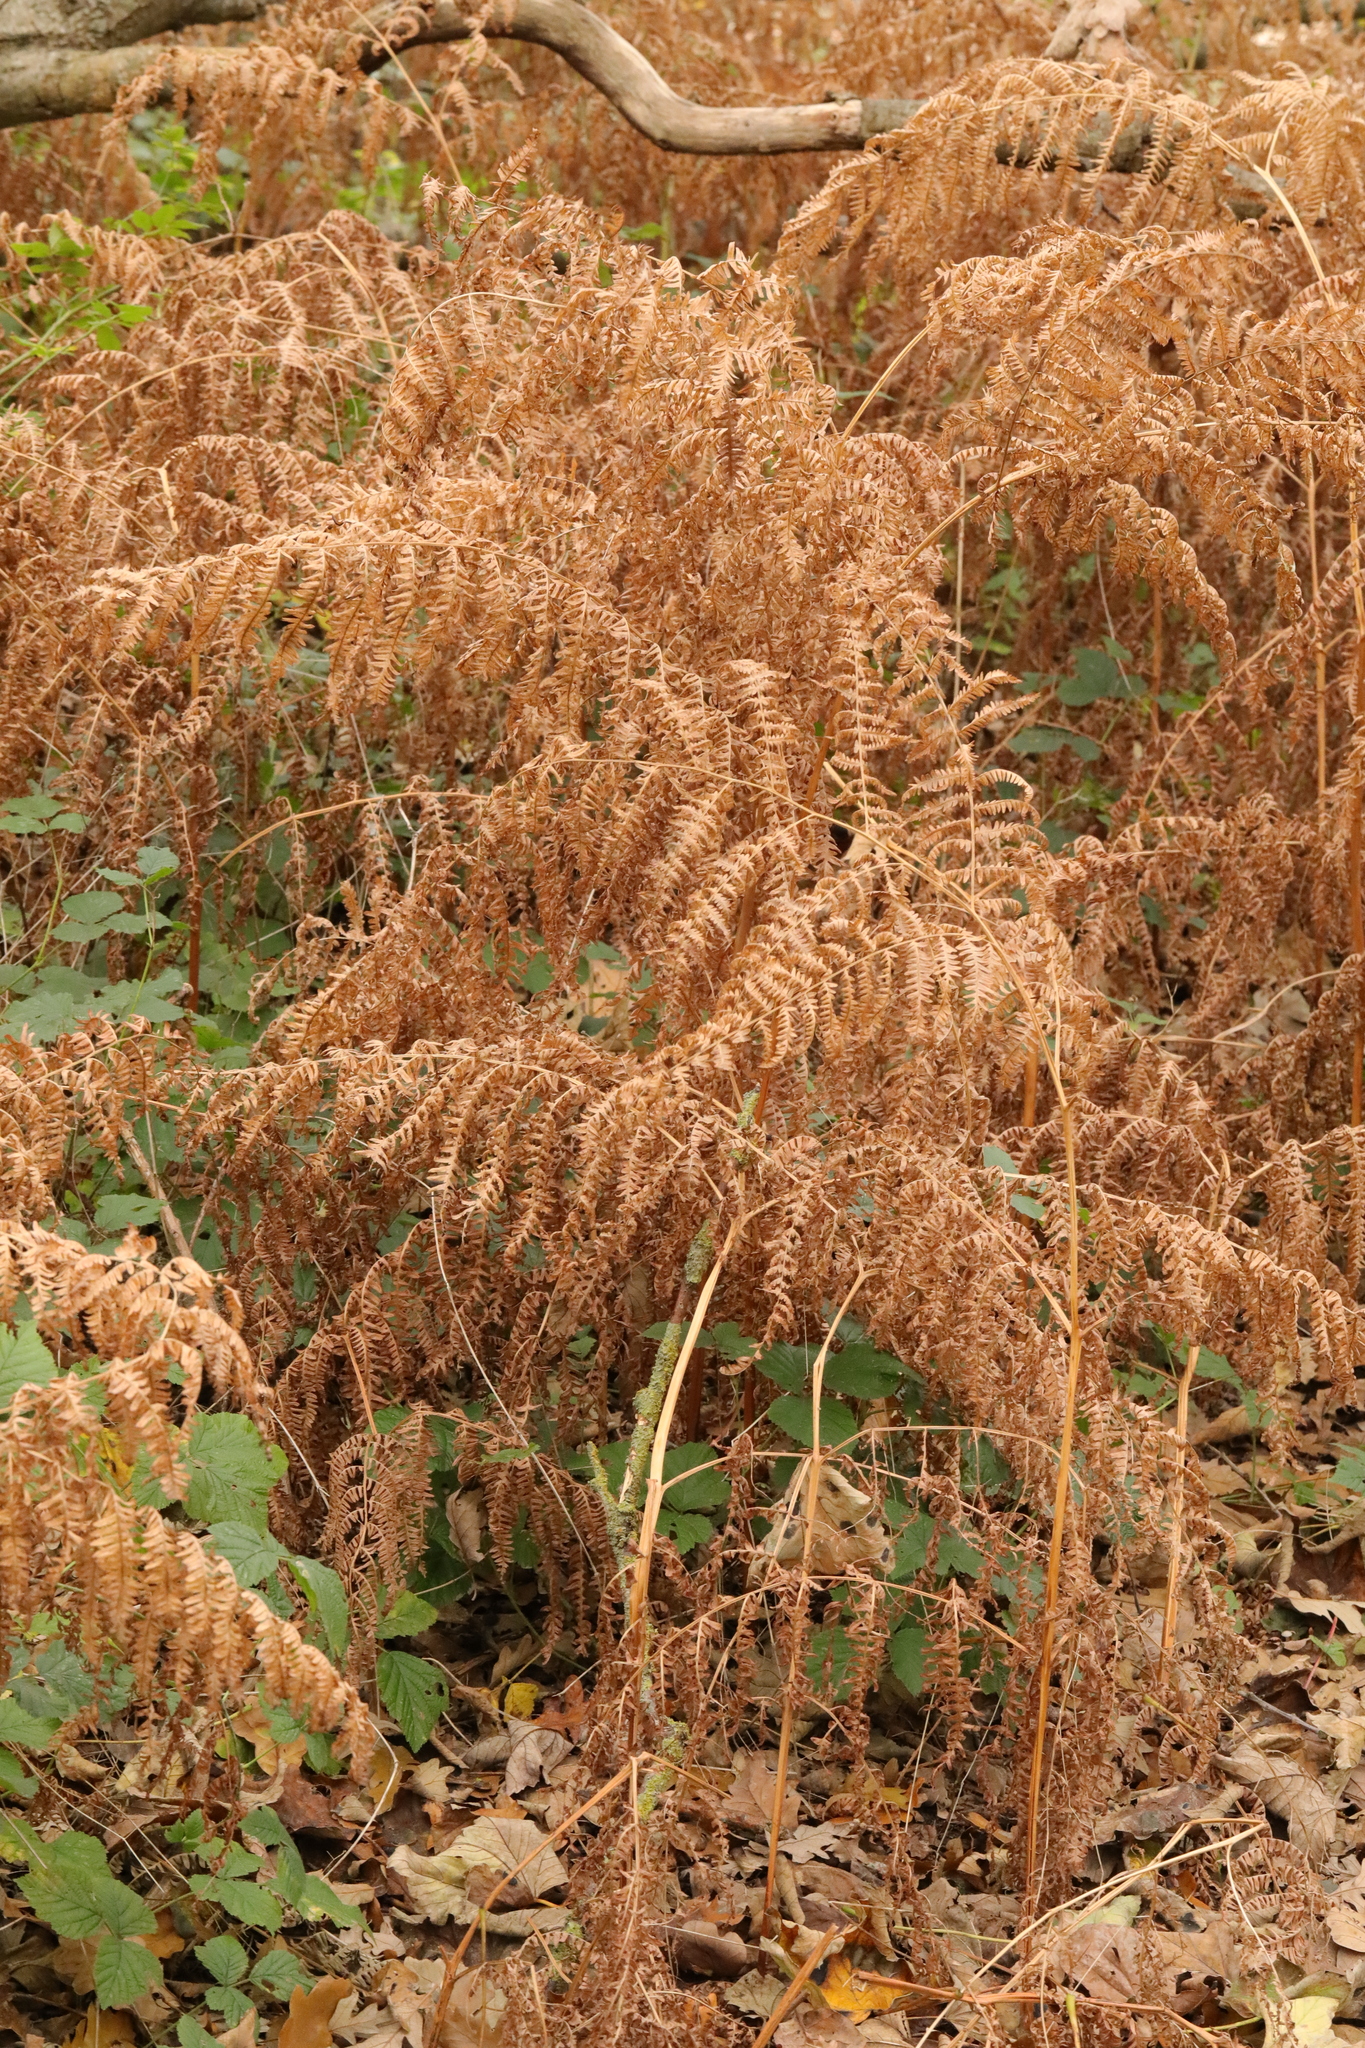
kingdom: Plantae
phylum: Tracheophyta
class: Polypodiopsida
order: Polypodiales
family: Dennstaedtiaceae
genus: Pteridium
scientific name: Pteridium aquilinum
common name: Bracken
